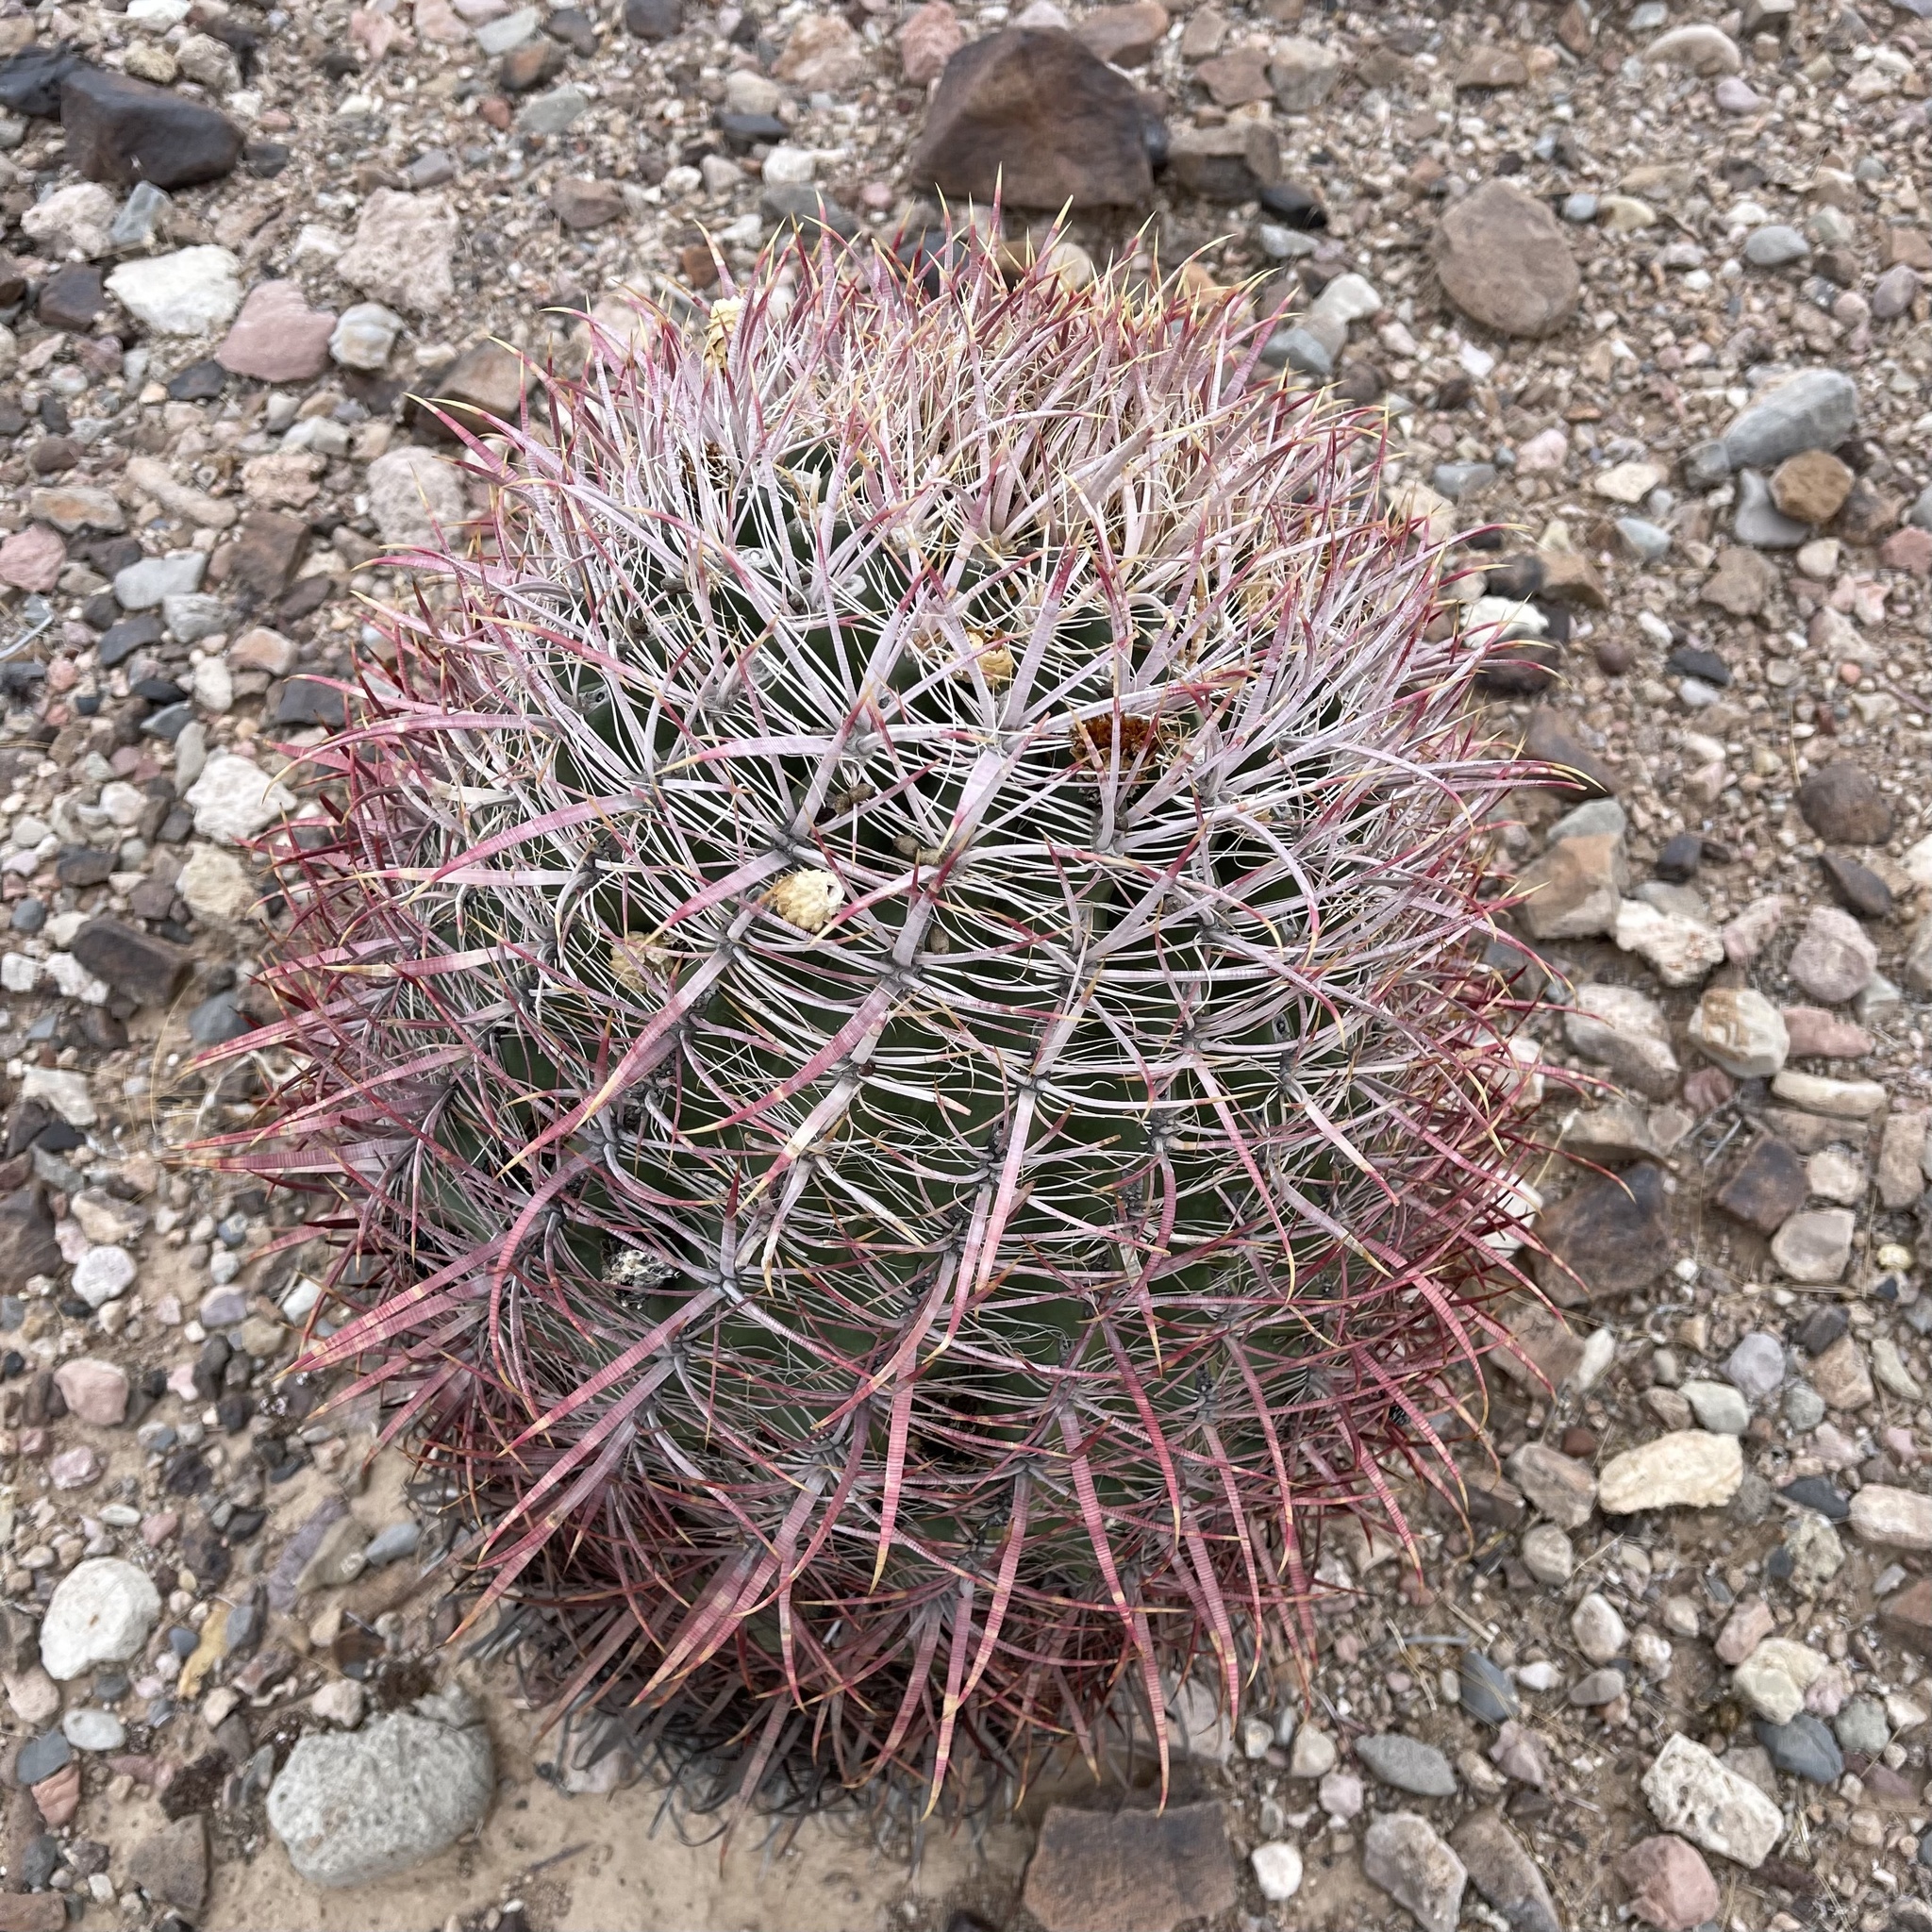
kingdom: Plantae
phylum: Tracheophyta
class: Magnoliopsida
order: Caryophyllales
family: Cactaceae
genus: Ferocactus
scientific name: Ferocactus cylindraceus
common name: California barrel cactus
